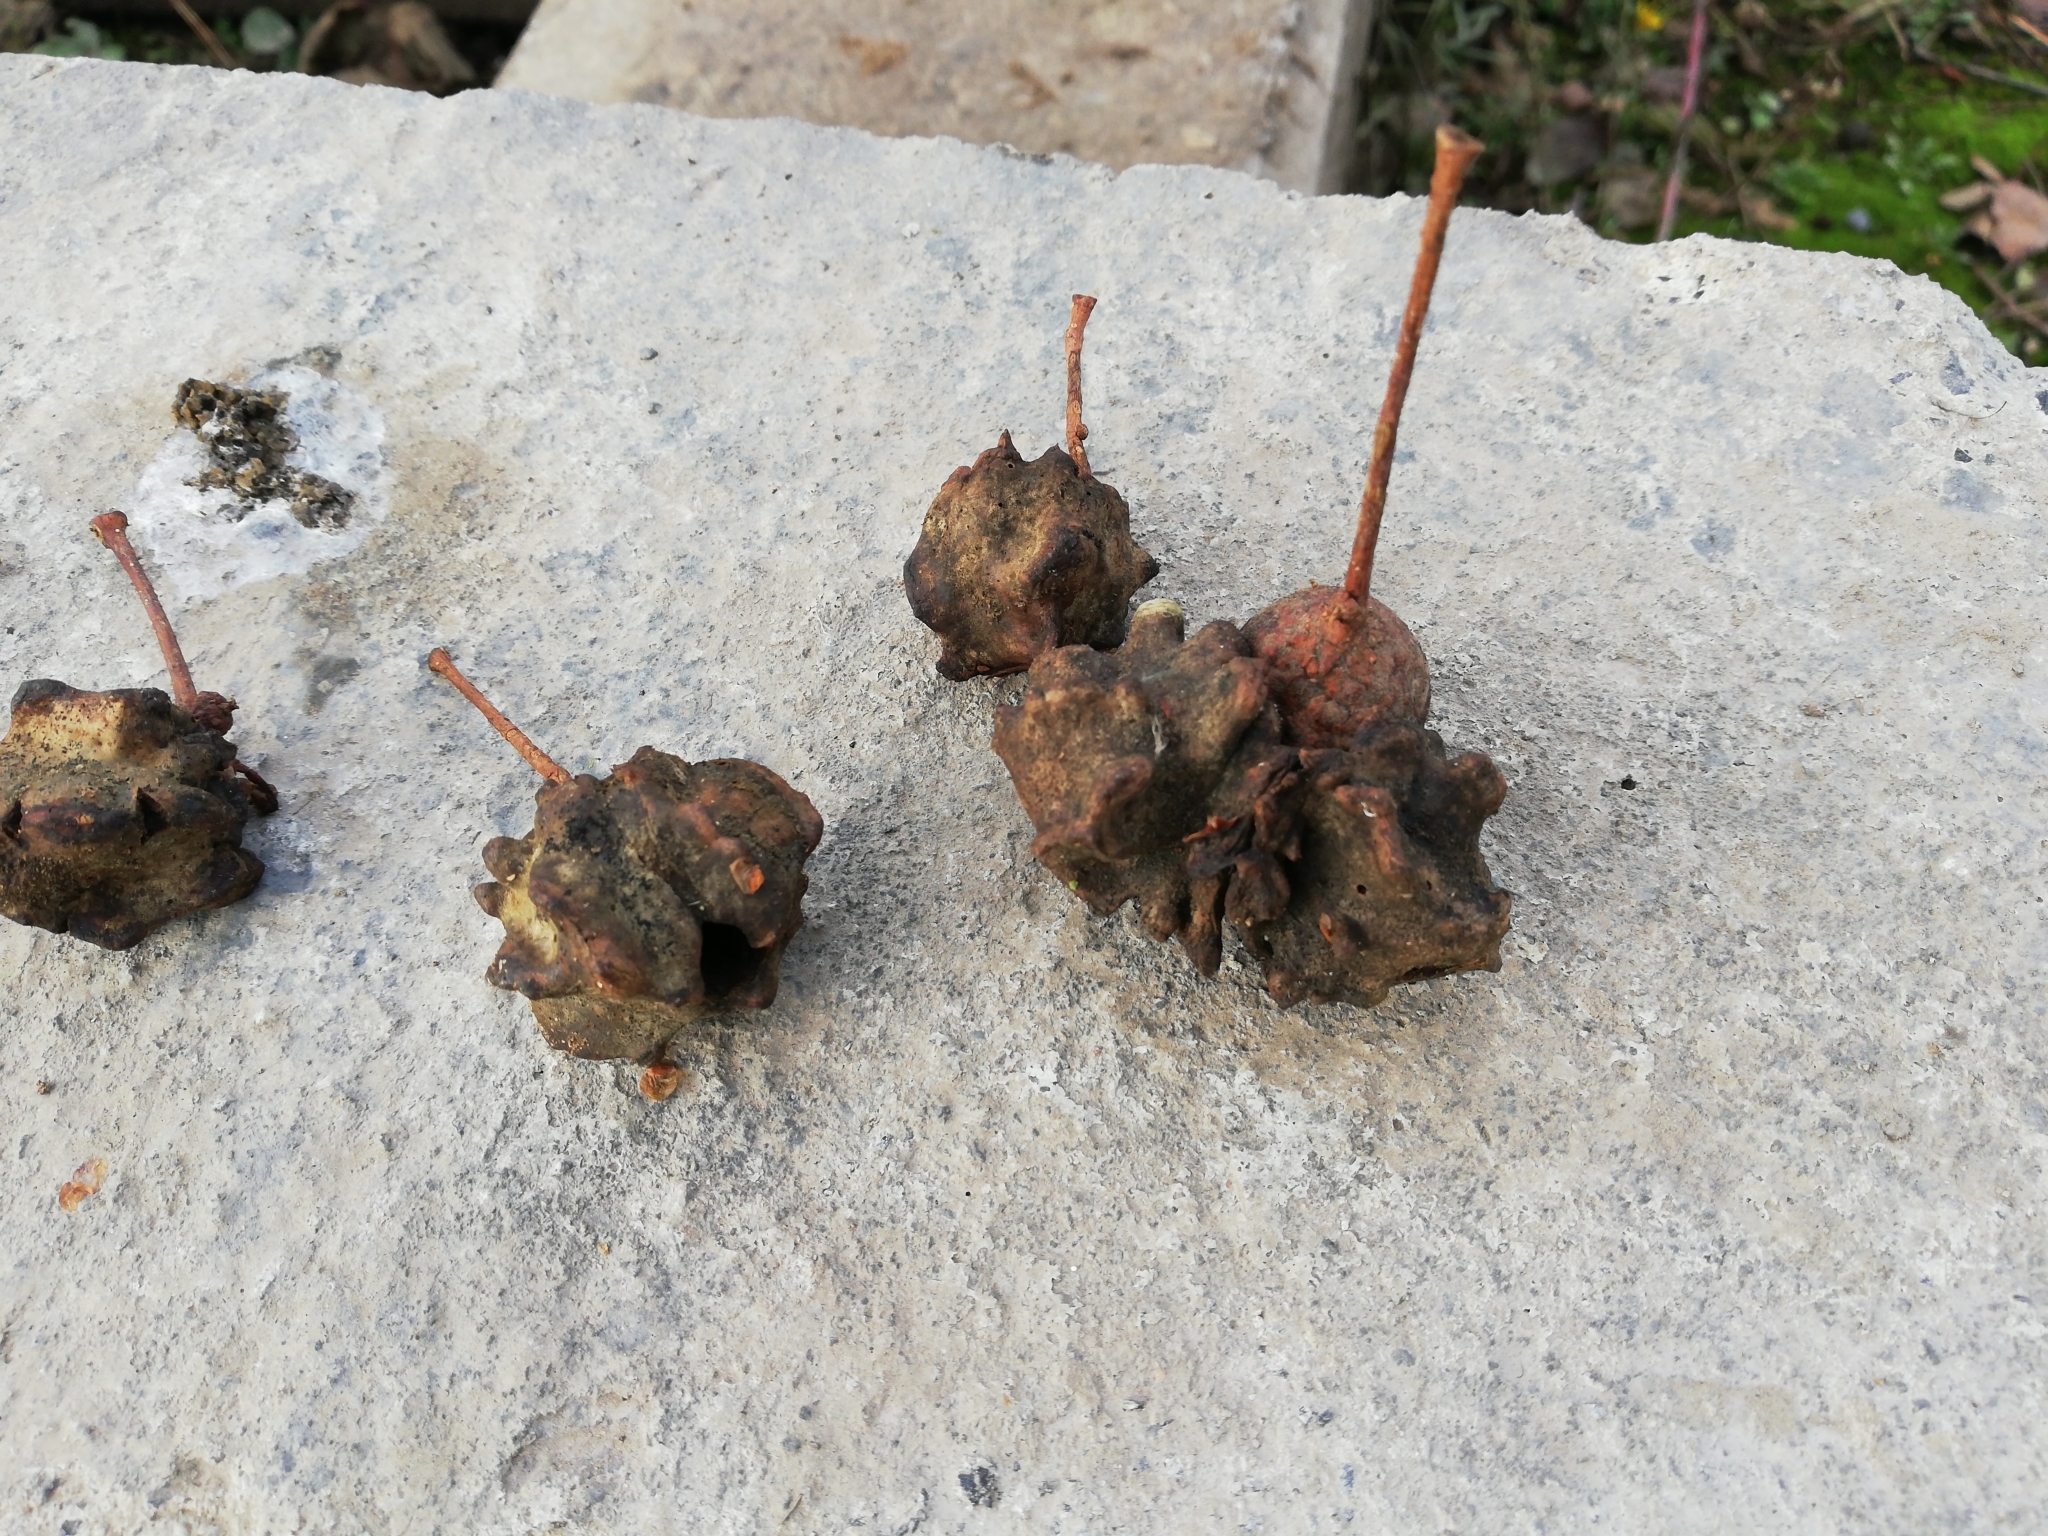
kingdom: Animalia
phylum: Arthropoda
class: Insecta
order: Hymenoptera
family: Cynipidae
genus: Andricus
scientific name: Andricus quercuscalicis
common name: Knopper gall
